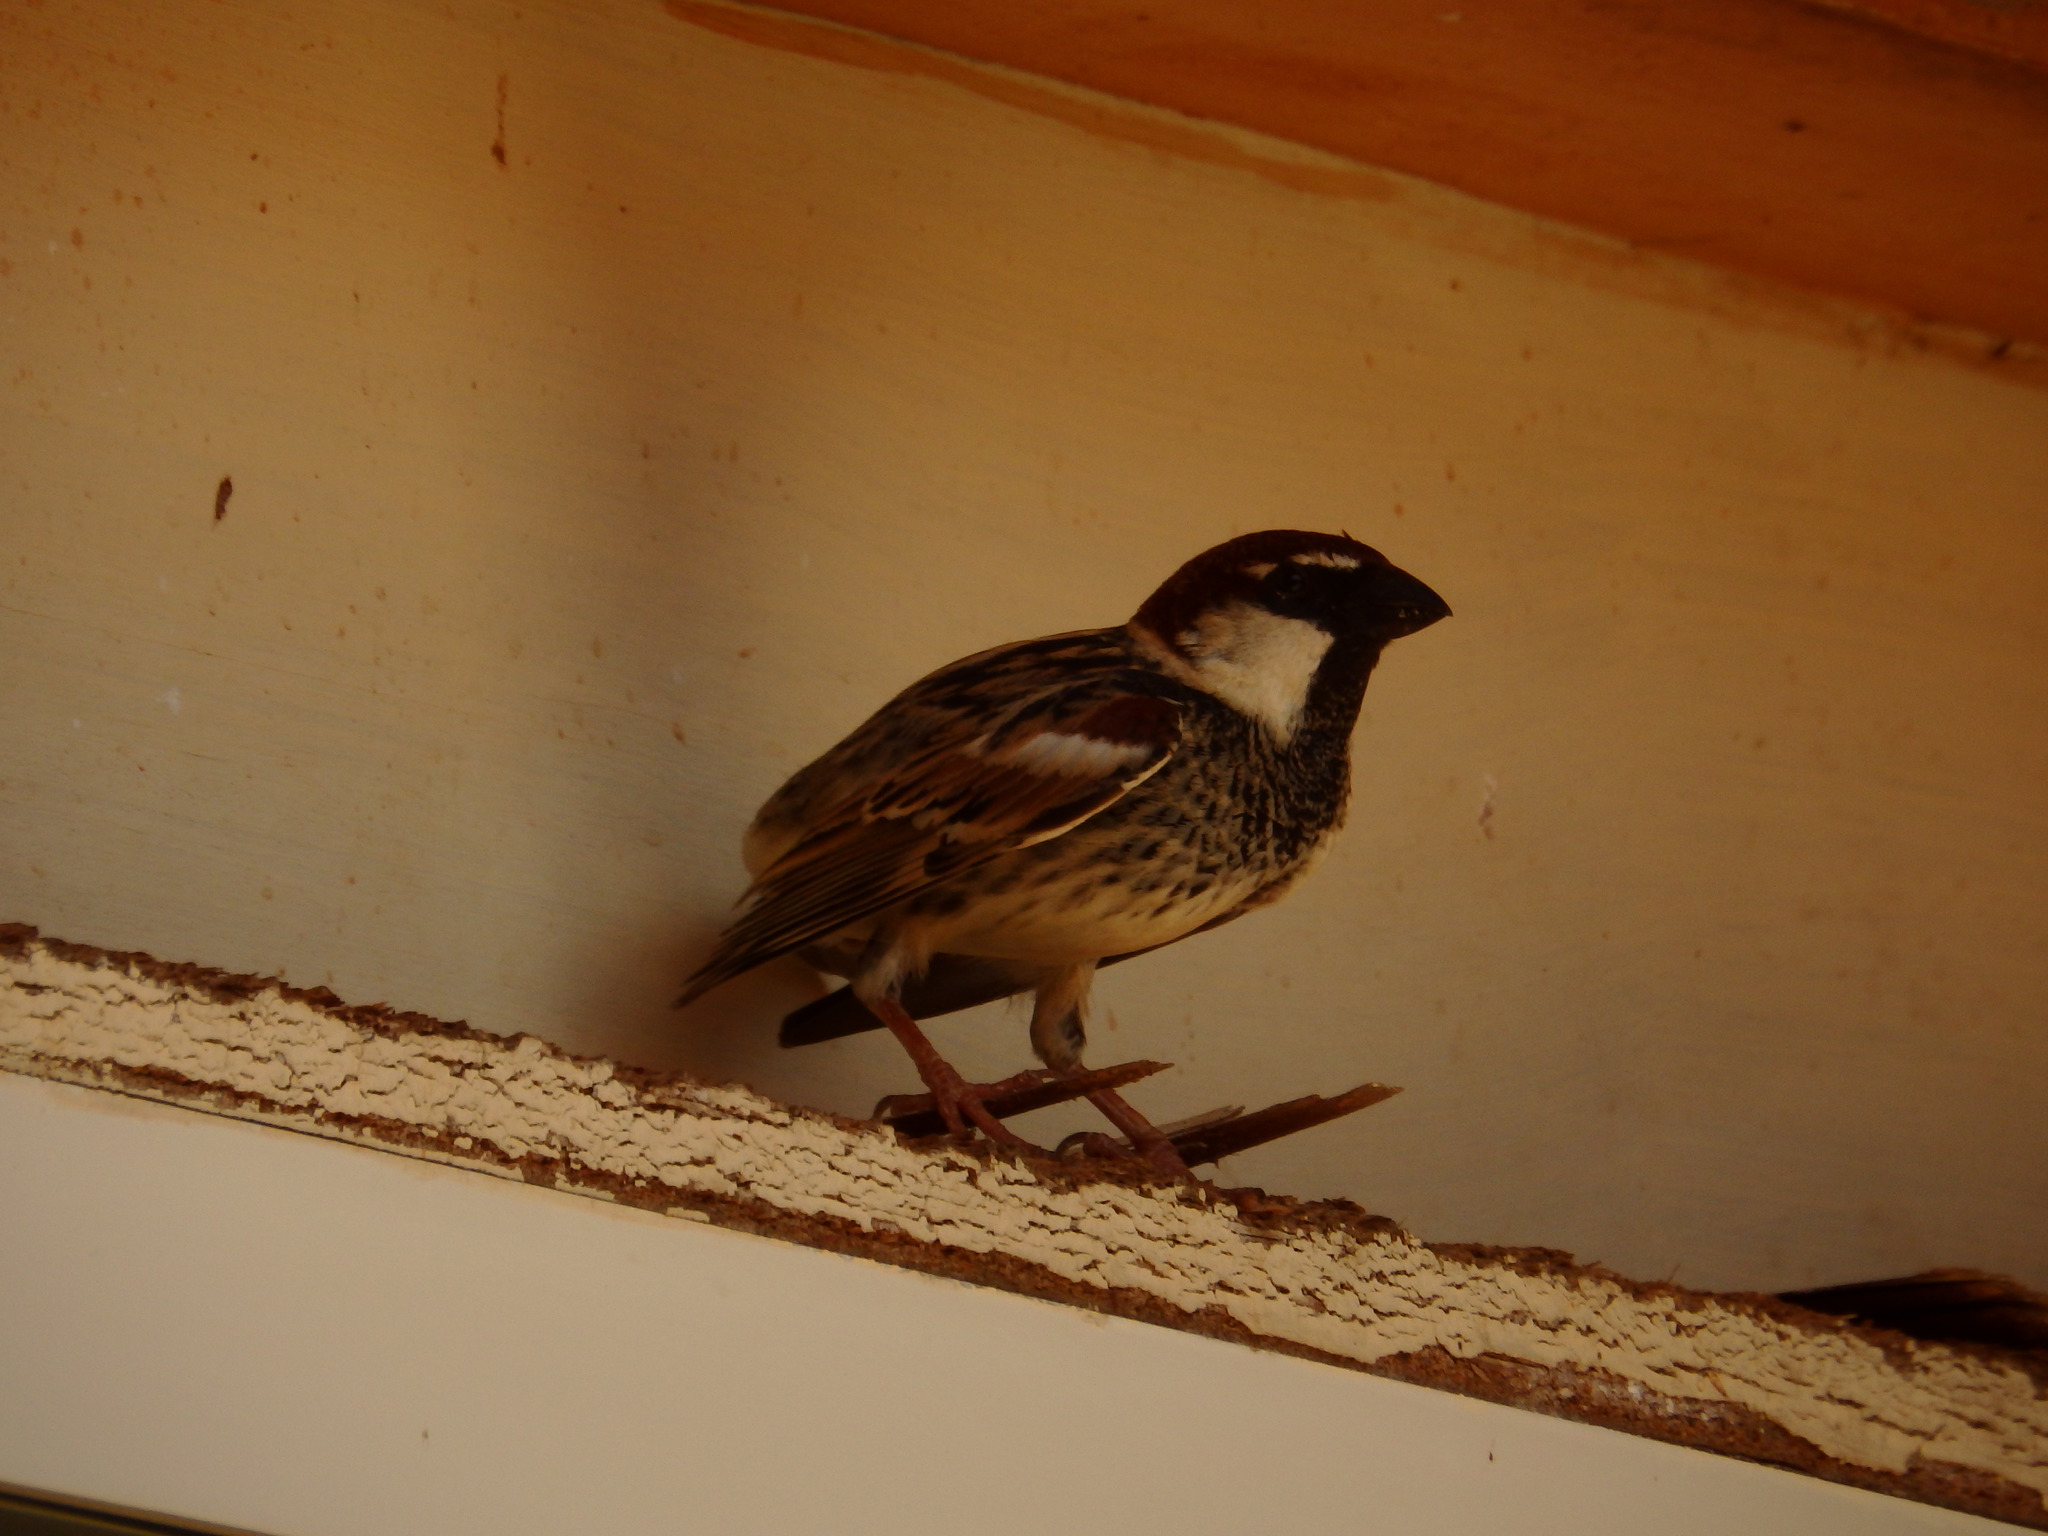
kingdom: Animalia
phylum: Chordata
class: Aves
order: Passeriformes
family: Passeridae
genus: Passer
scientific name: Passer hispaniolensis
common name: Spanish sparrow
